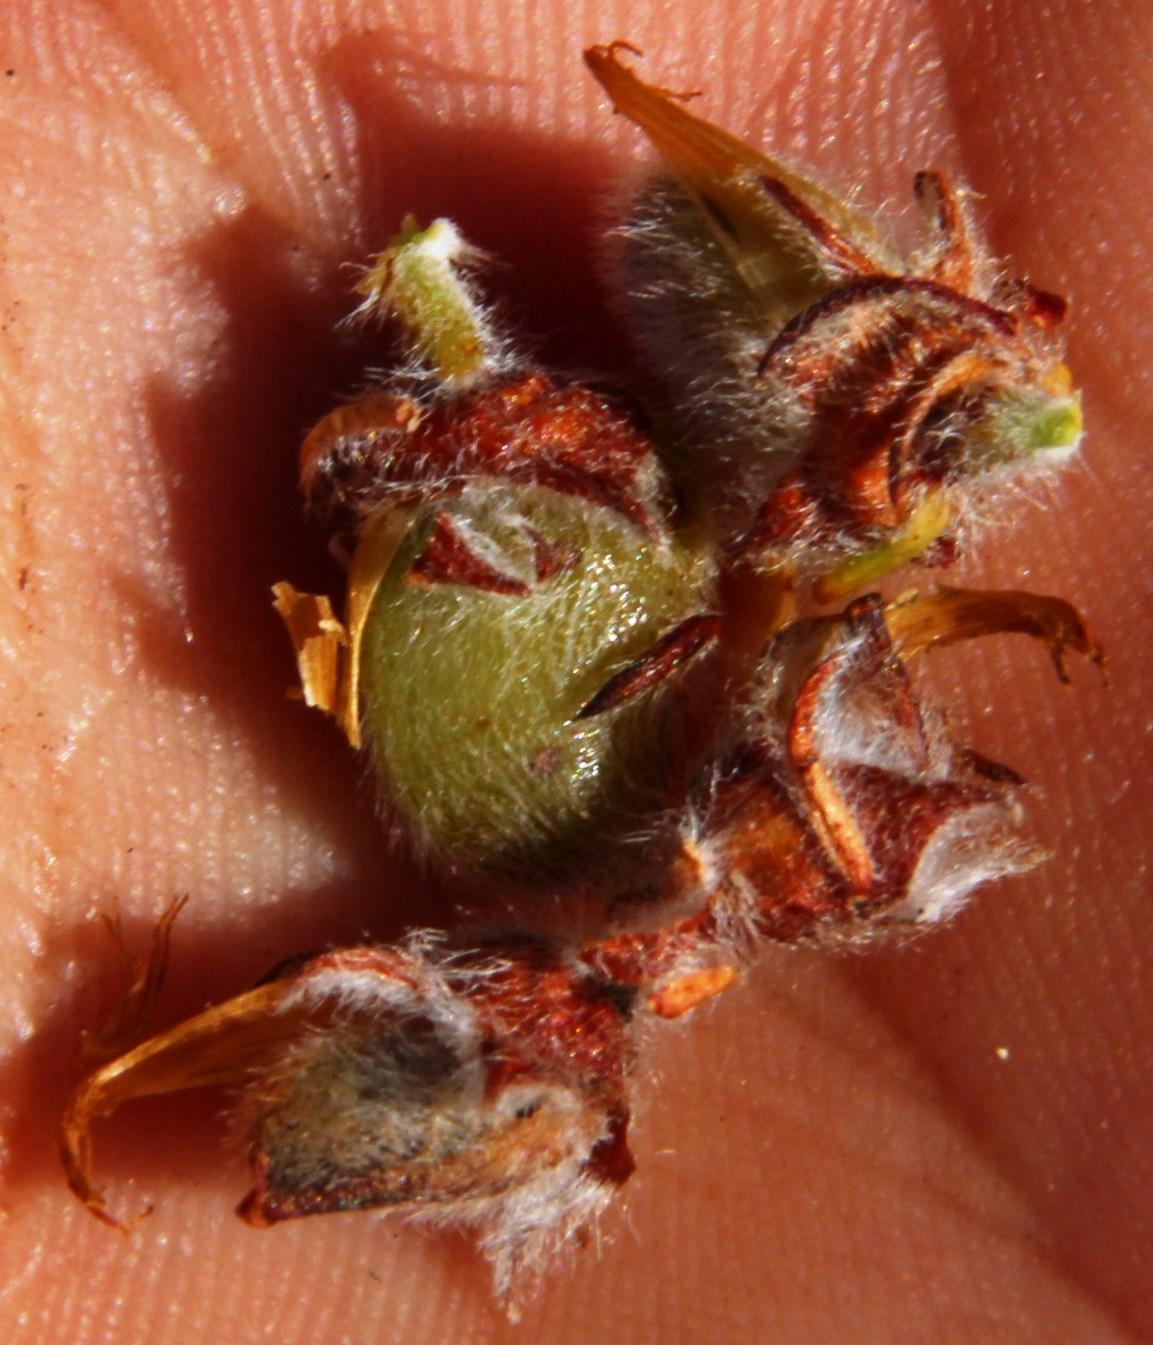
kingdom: Plantae
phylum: Tracheophyta
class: Magnoliopsida
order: Fabales
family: Fabaceae
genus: Aspalathus
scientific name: Aspalathus triquetra
